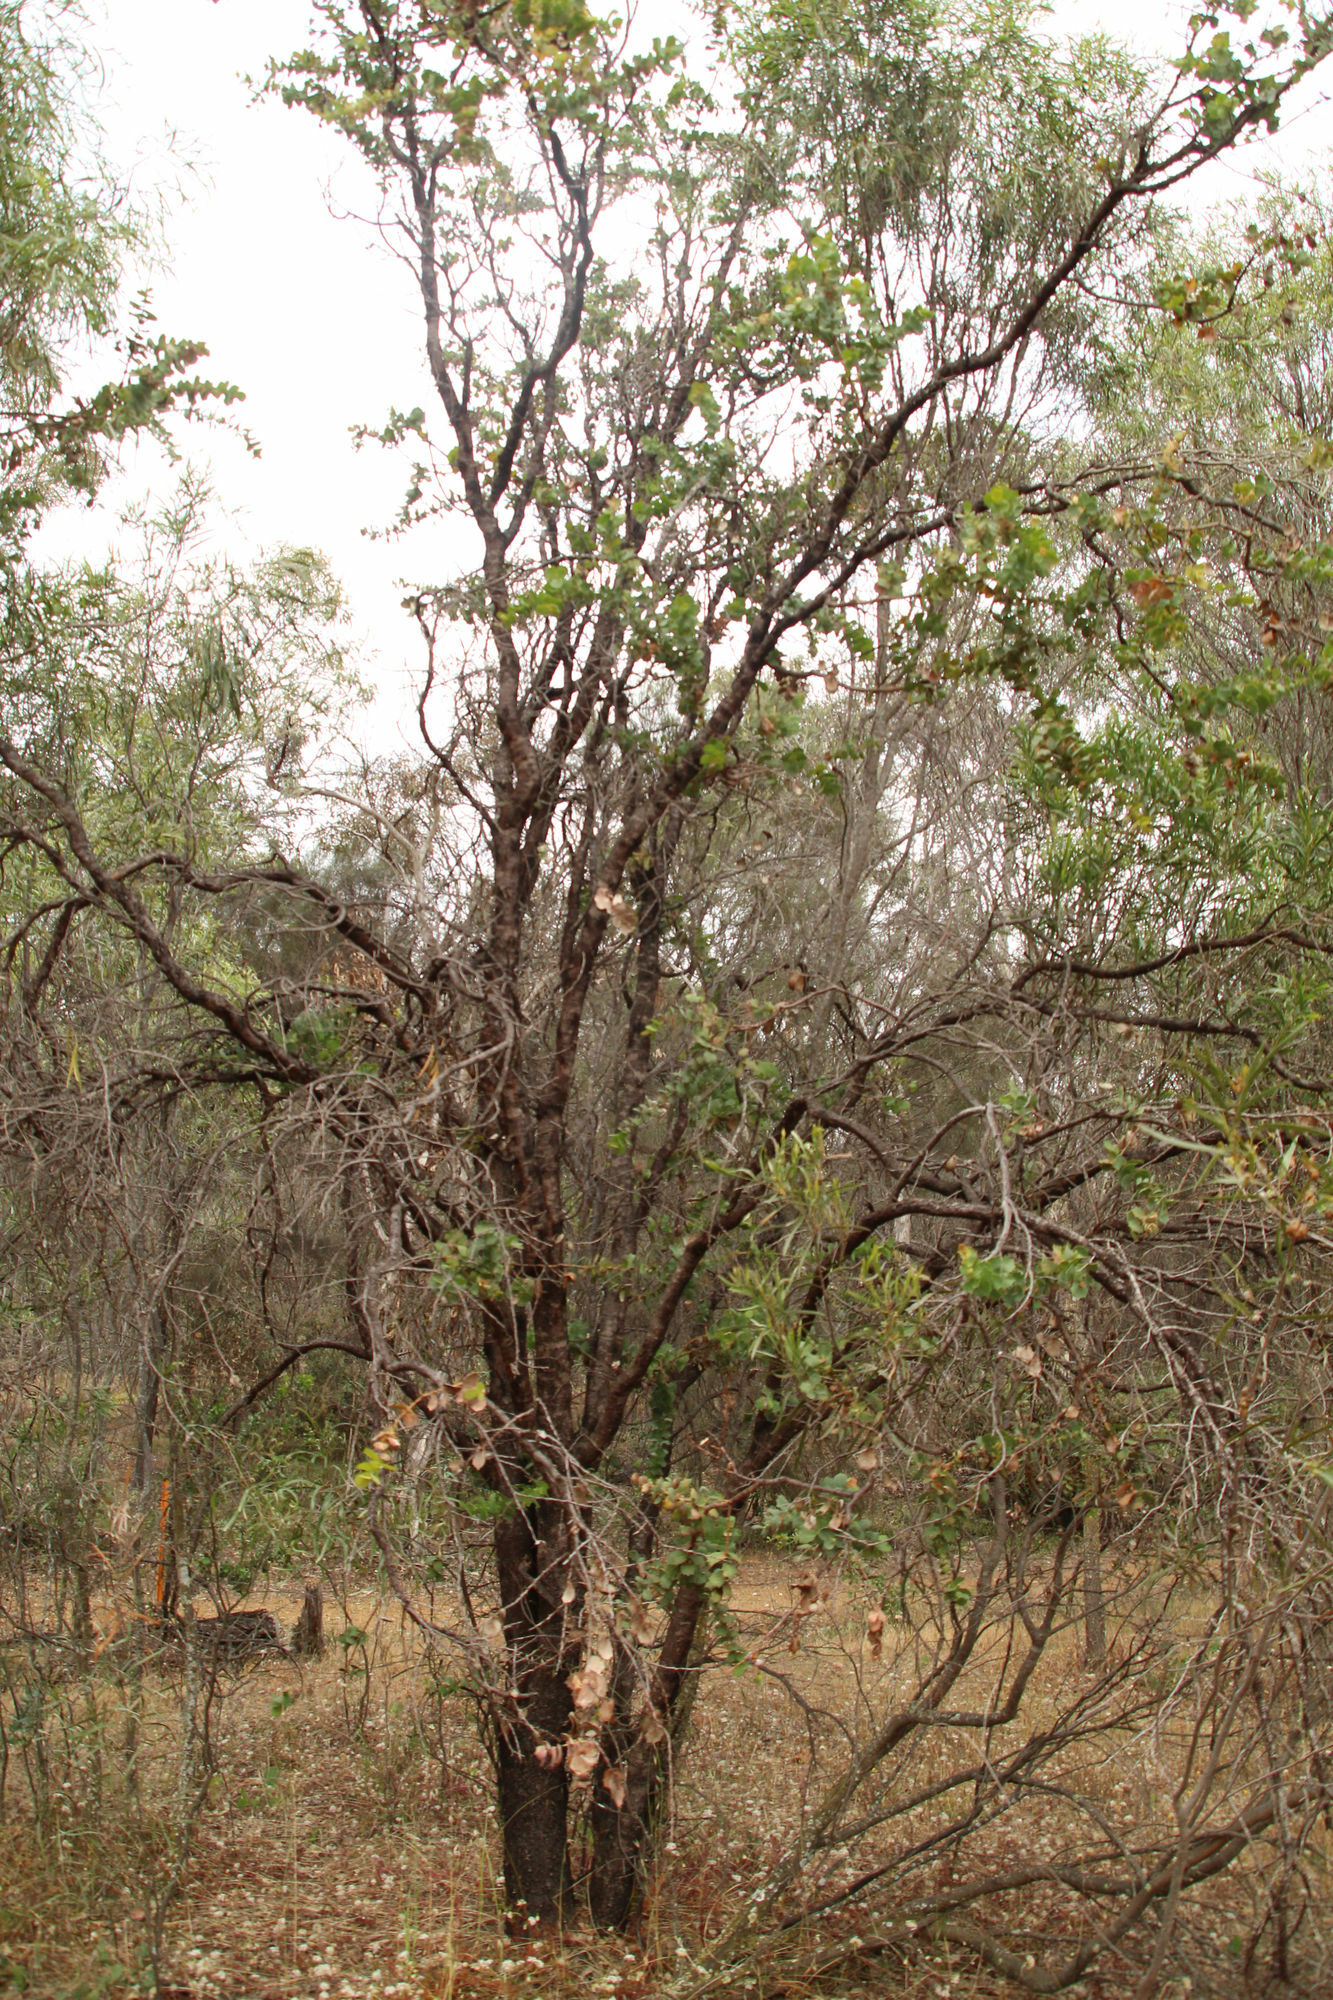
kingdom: Plantae
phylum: Tracheophyta
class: Magnoliopsida
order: Proteales
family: Proteaceae
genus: Hakea
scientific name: Hakea prostrata
